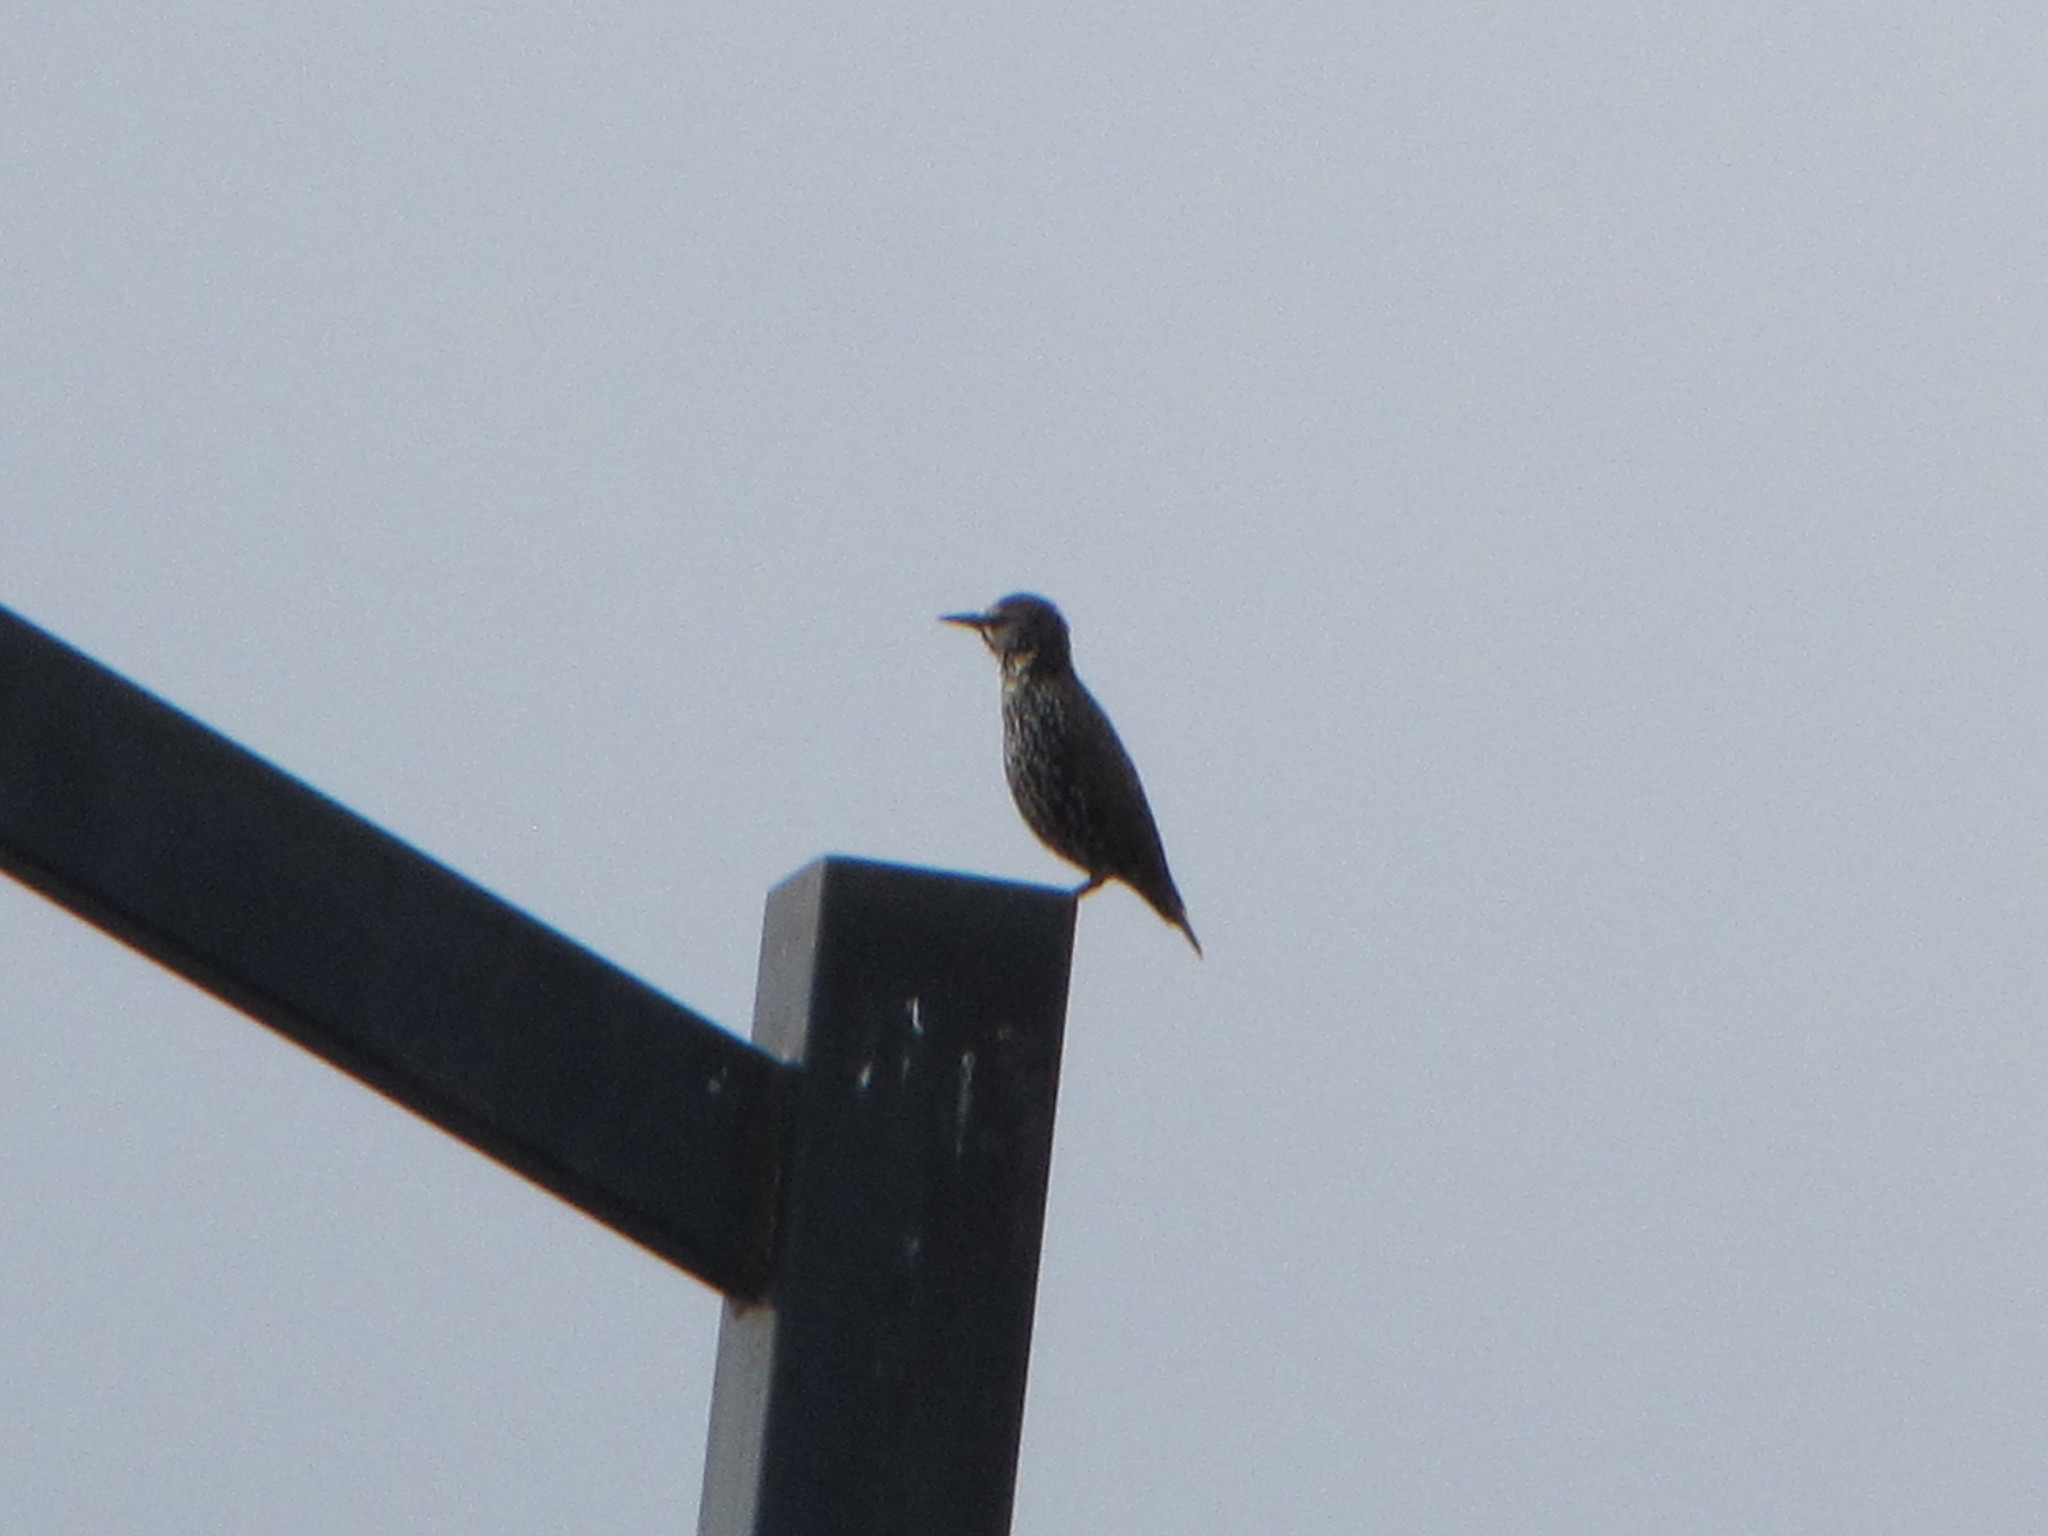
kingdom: Animalia
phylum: Chordata
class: Aves
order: Passeriformes
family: Sturnidae
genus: Sturnus
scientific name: Sturnus vulgaris
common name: Common starling
